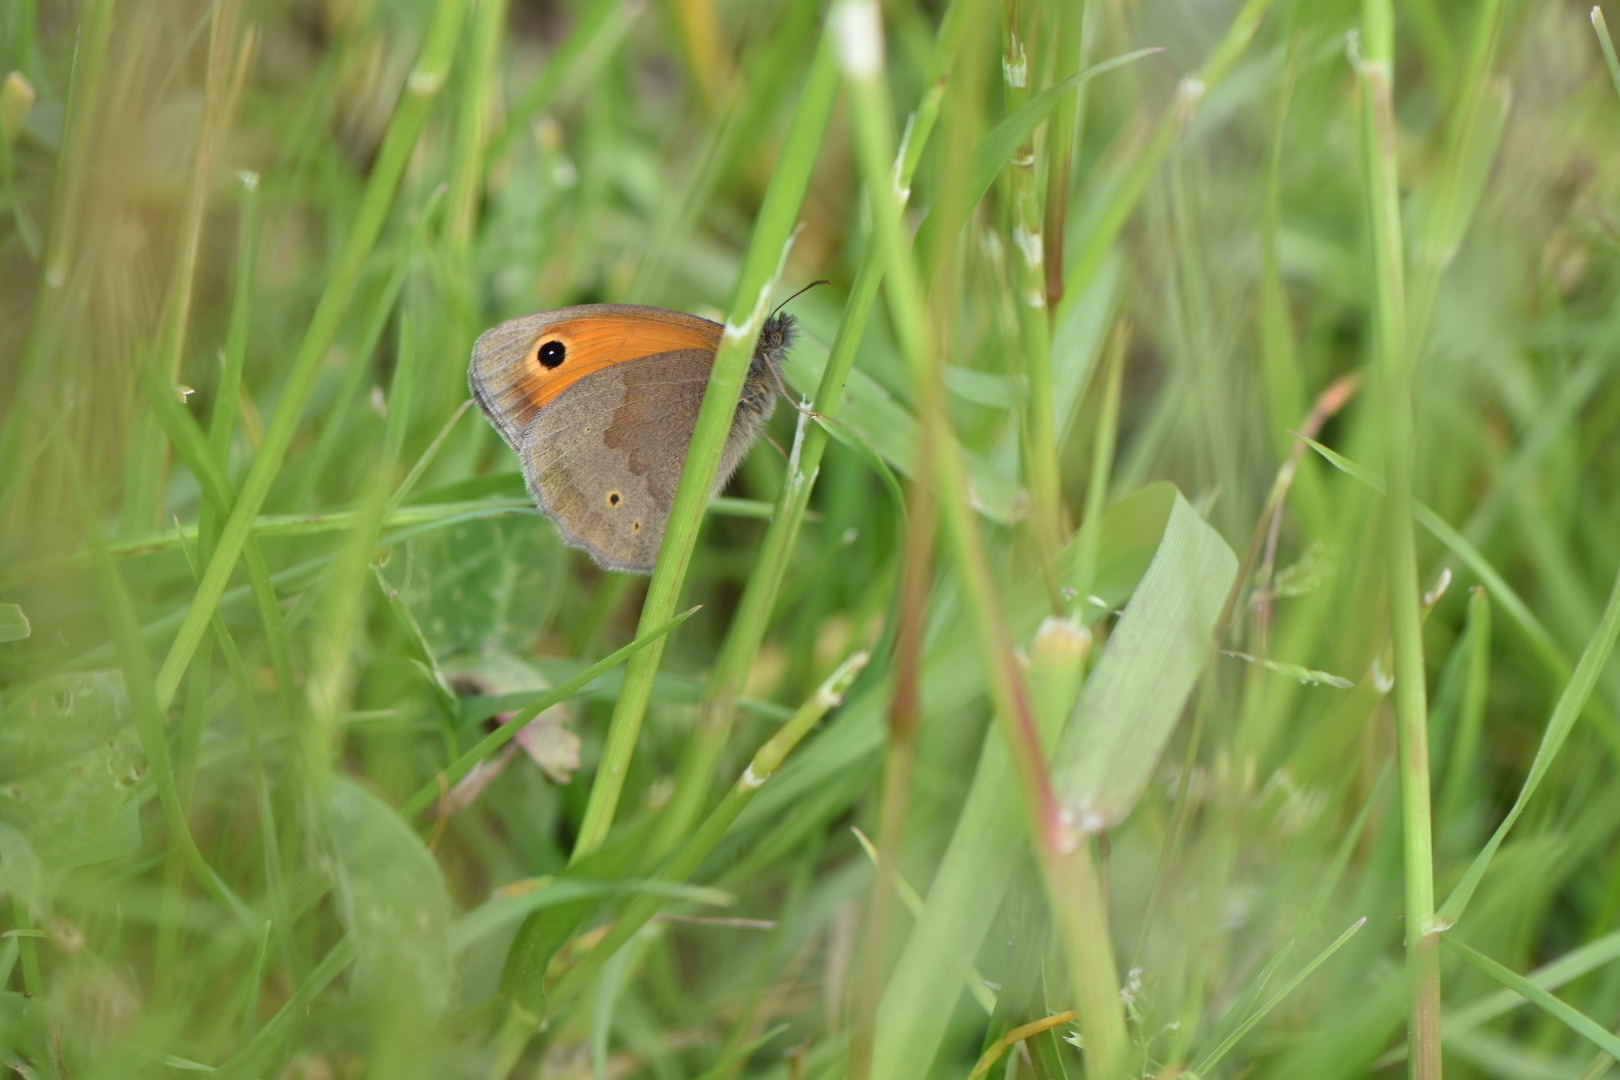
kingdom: Animalia
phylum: Arthropoda
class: Insecta
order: Lepidoptera
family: Nymphalidae
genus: Maniola
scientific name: Maniola jurtina
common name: Meadow brown
